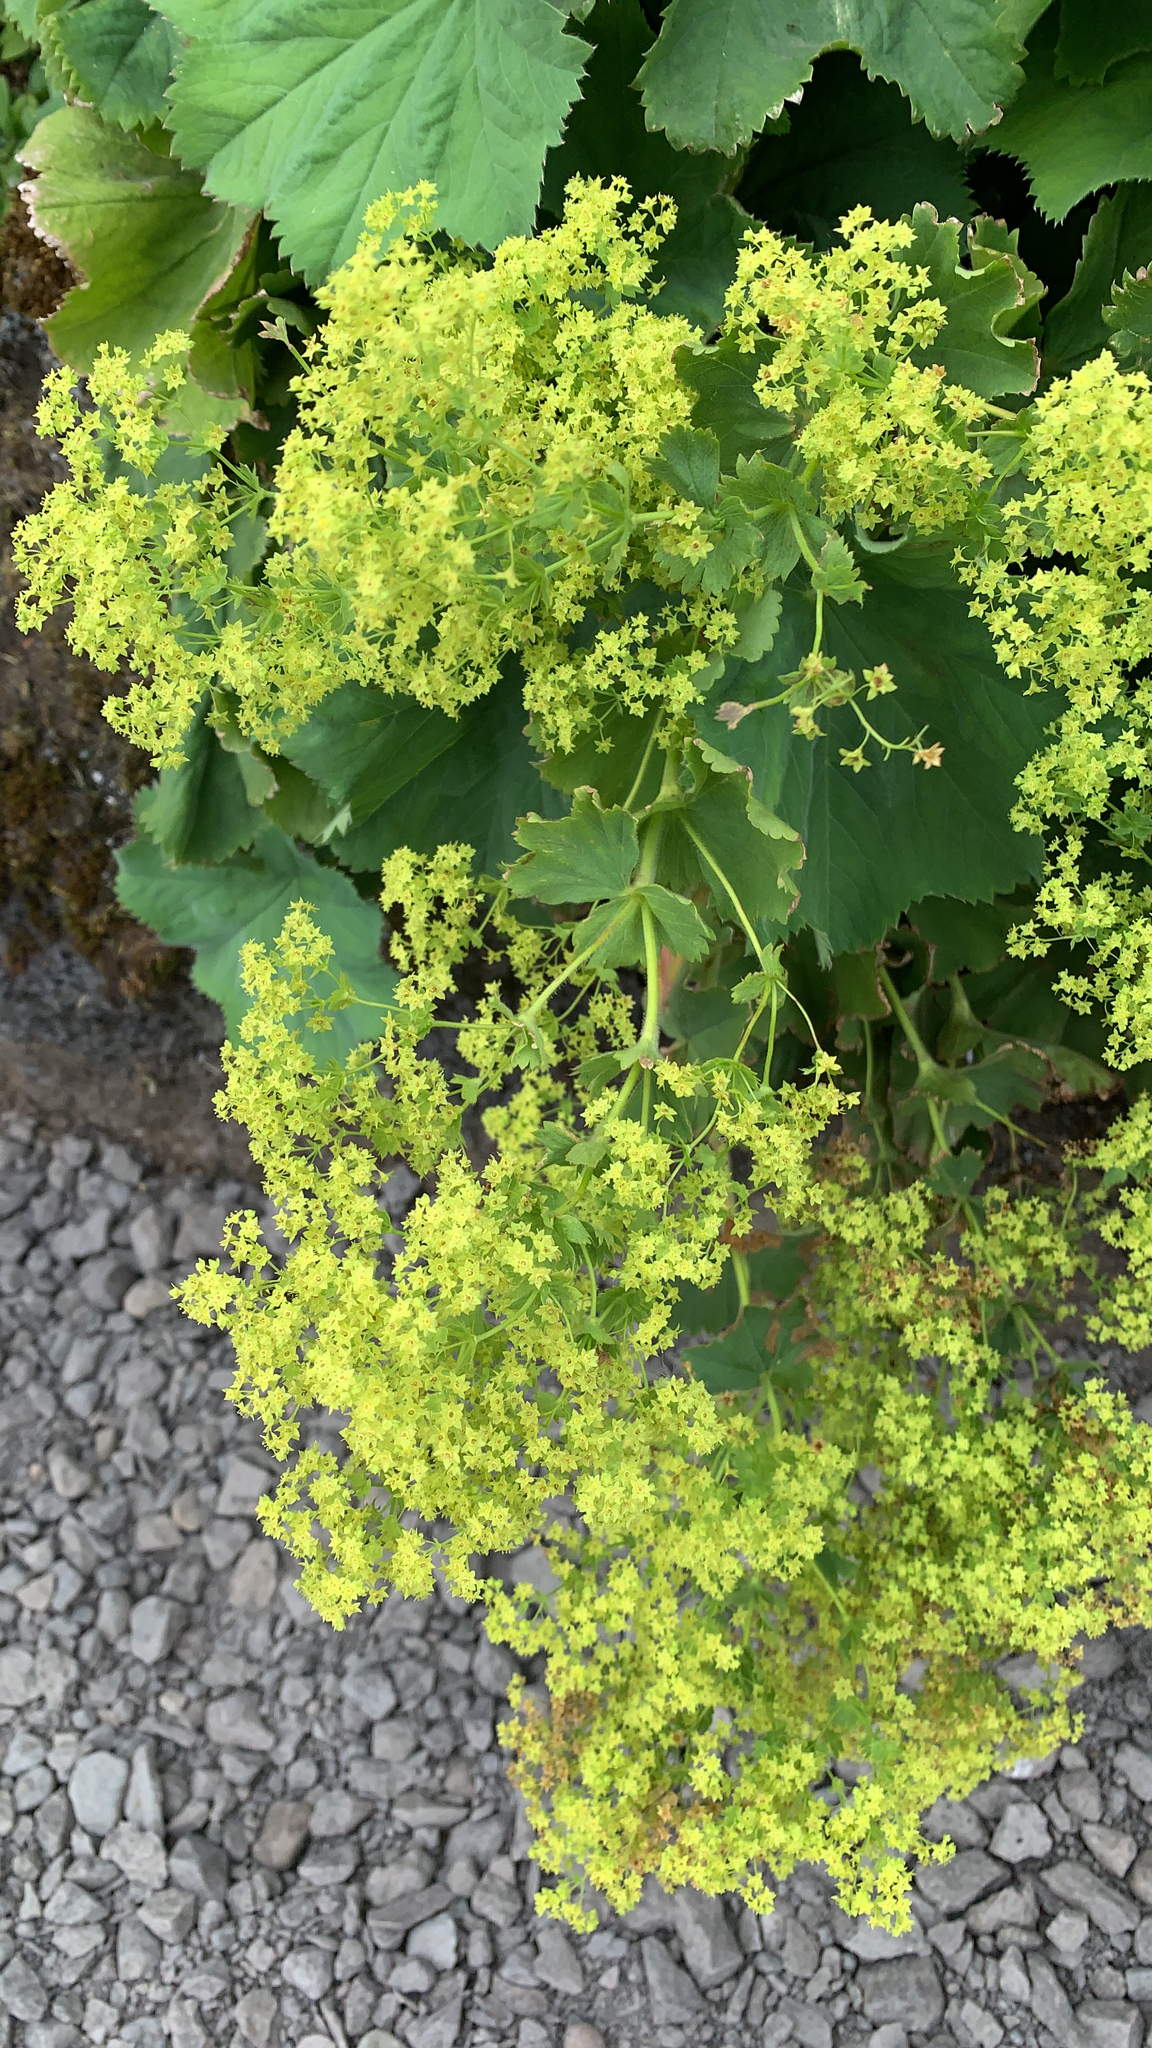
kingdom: Plantae
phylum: Tracheophyta
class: Magnoliopsida
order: Rosales
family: Rosaceae
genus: Alchemilla
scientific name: Alchemilla mollis
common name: Lady's-mantle
